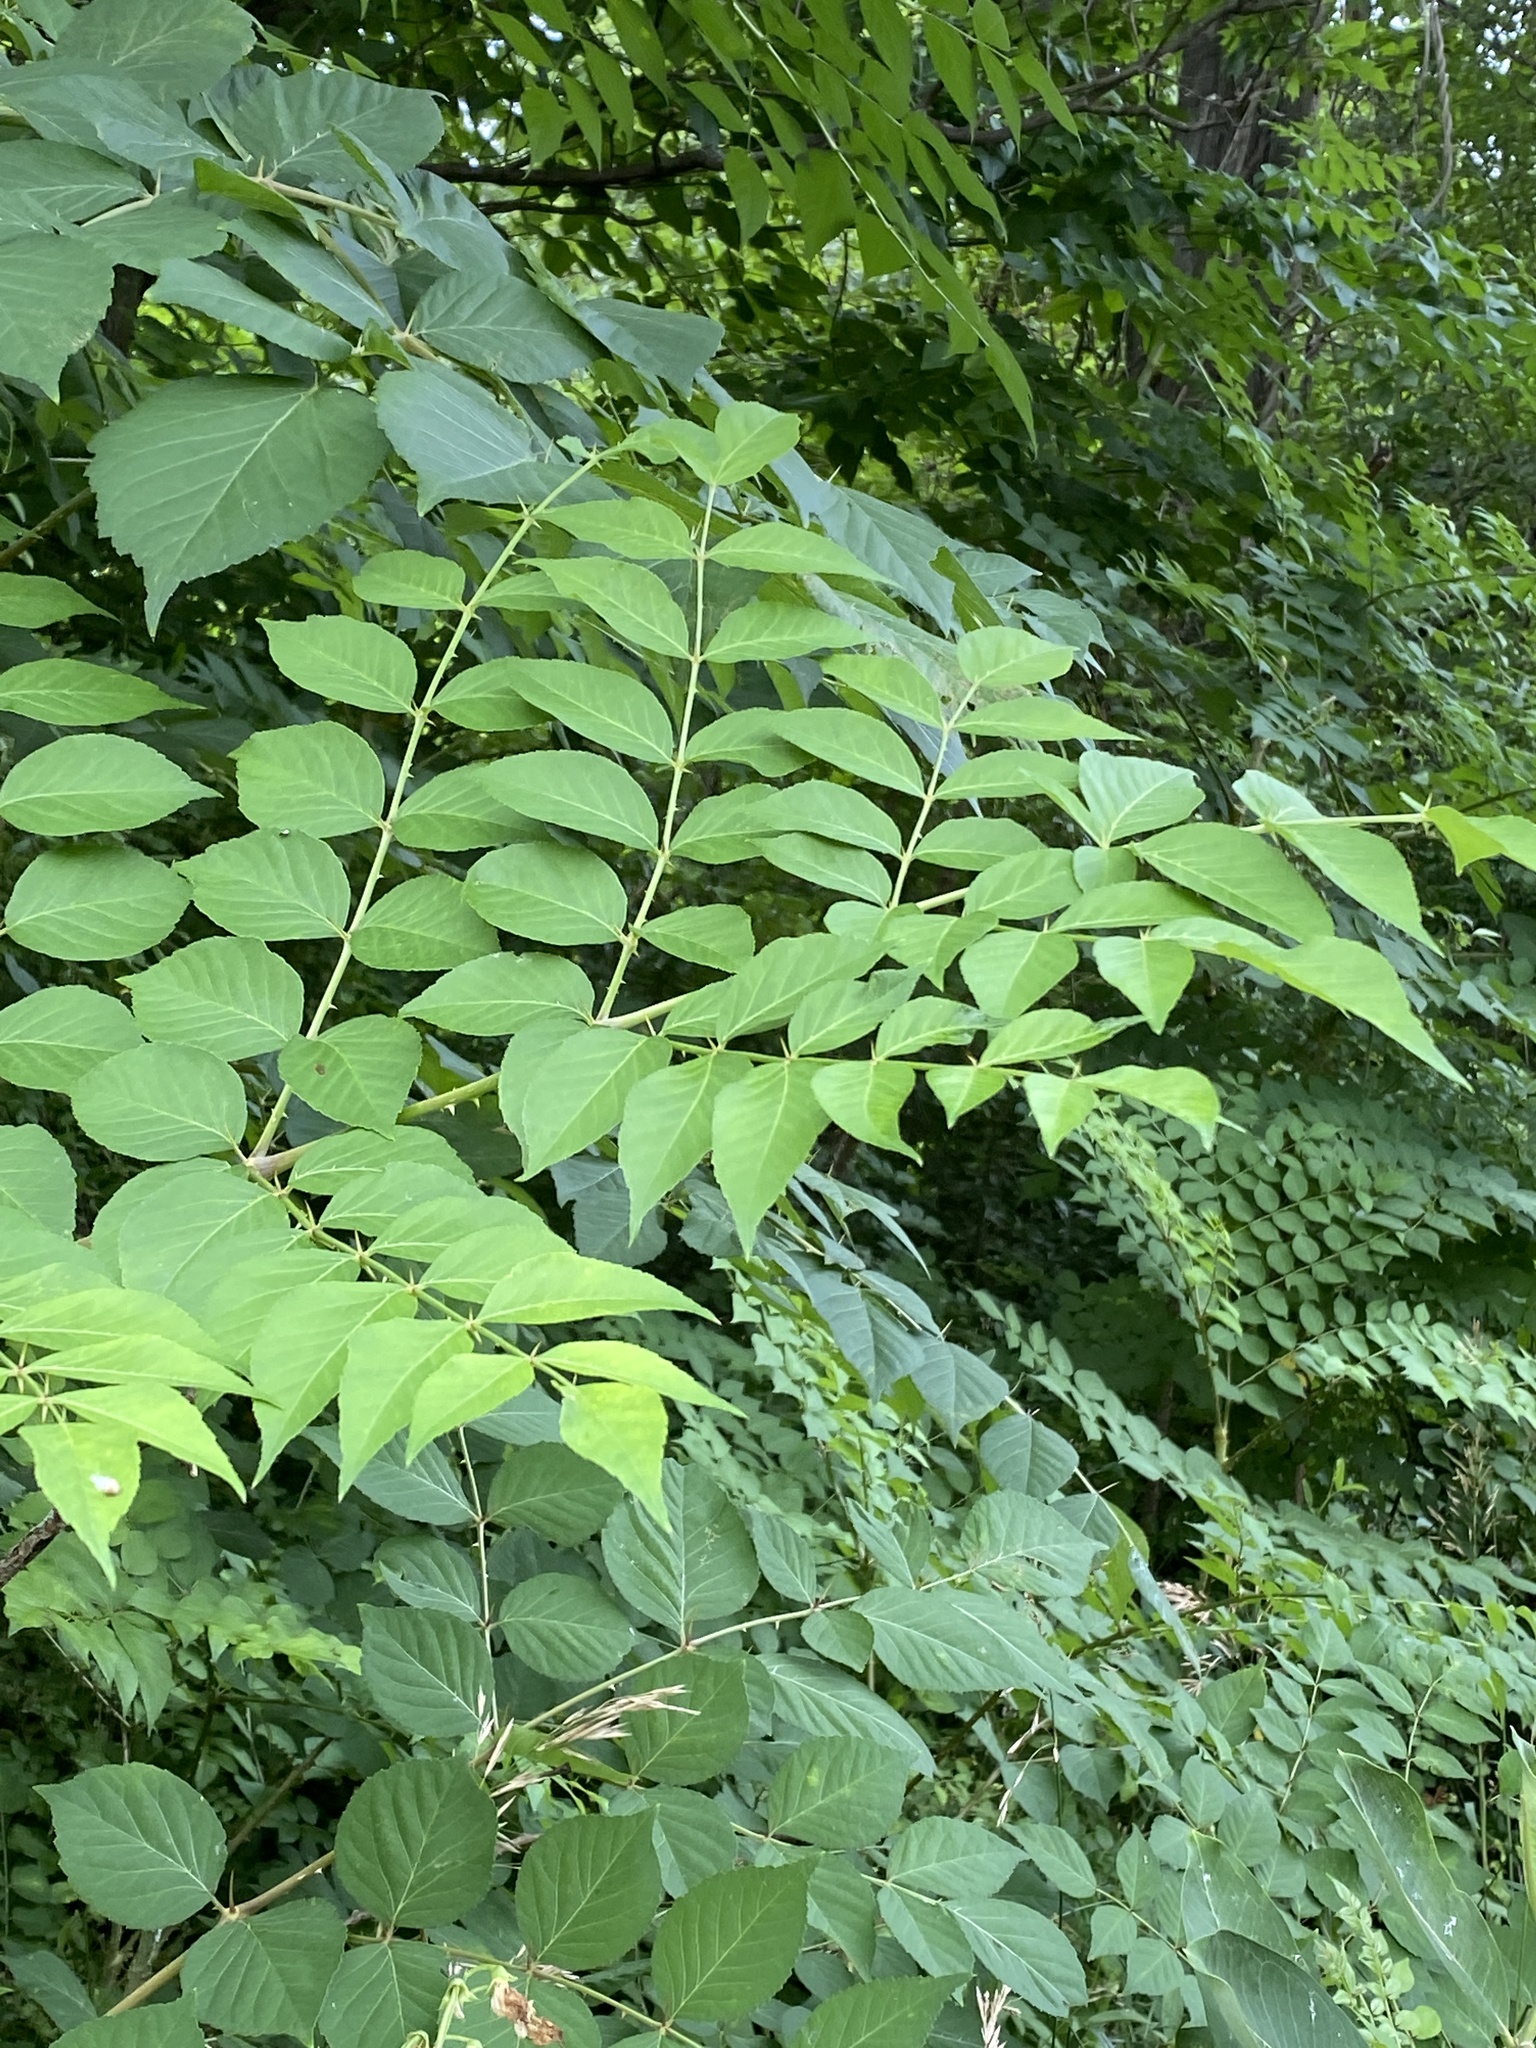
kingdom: Plantae
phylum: Tracheophyta
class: Magnoliopsida
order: Apiales
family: Araliaceae
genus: Aralia
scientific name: Aralia elata
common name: Japanese angelica-tree
